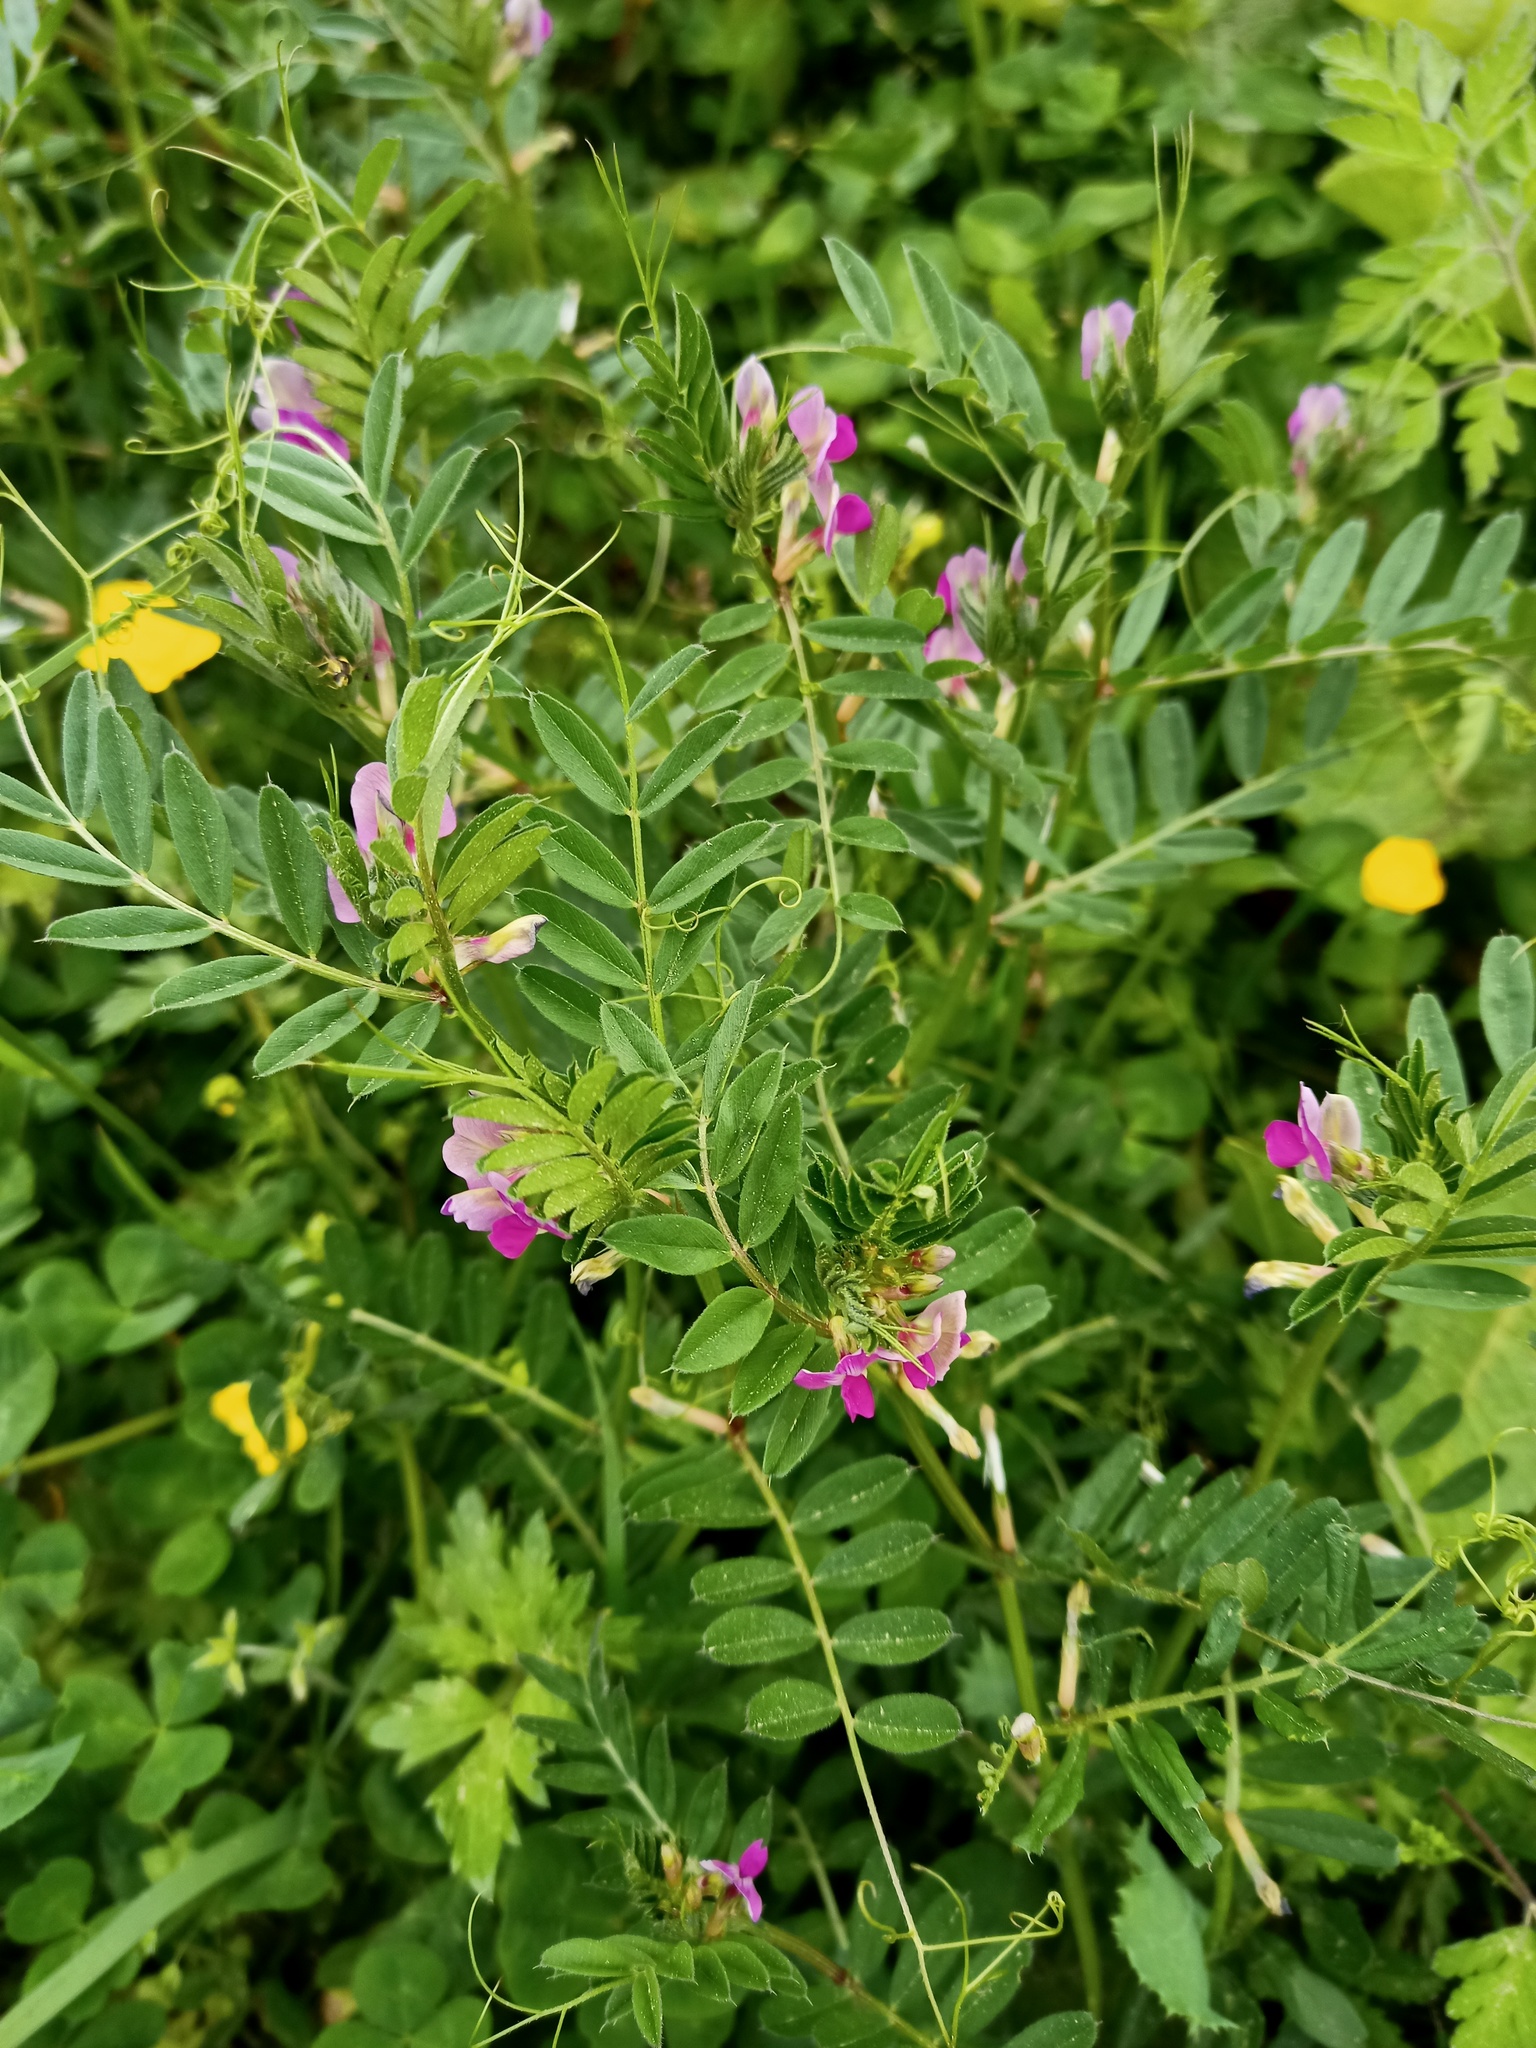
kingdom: Plantae
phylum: Tracheophyta
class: Magnoliopsida
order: Fabales
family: Fabaceae
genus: Vicia
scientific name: Vicia sativa
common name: Garden vetch
